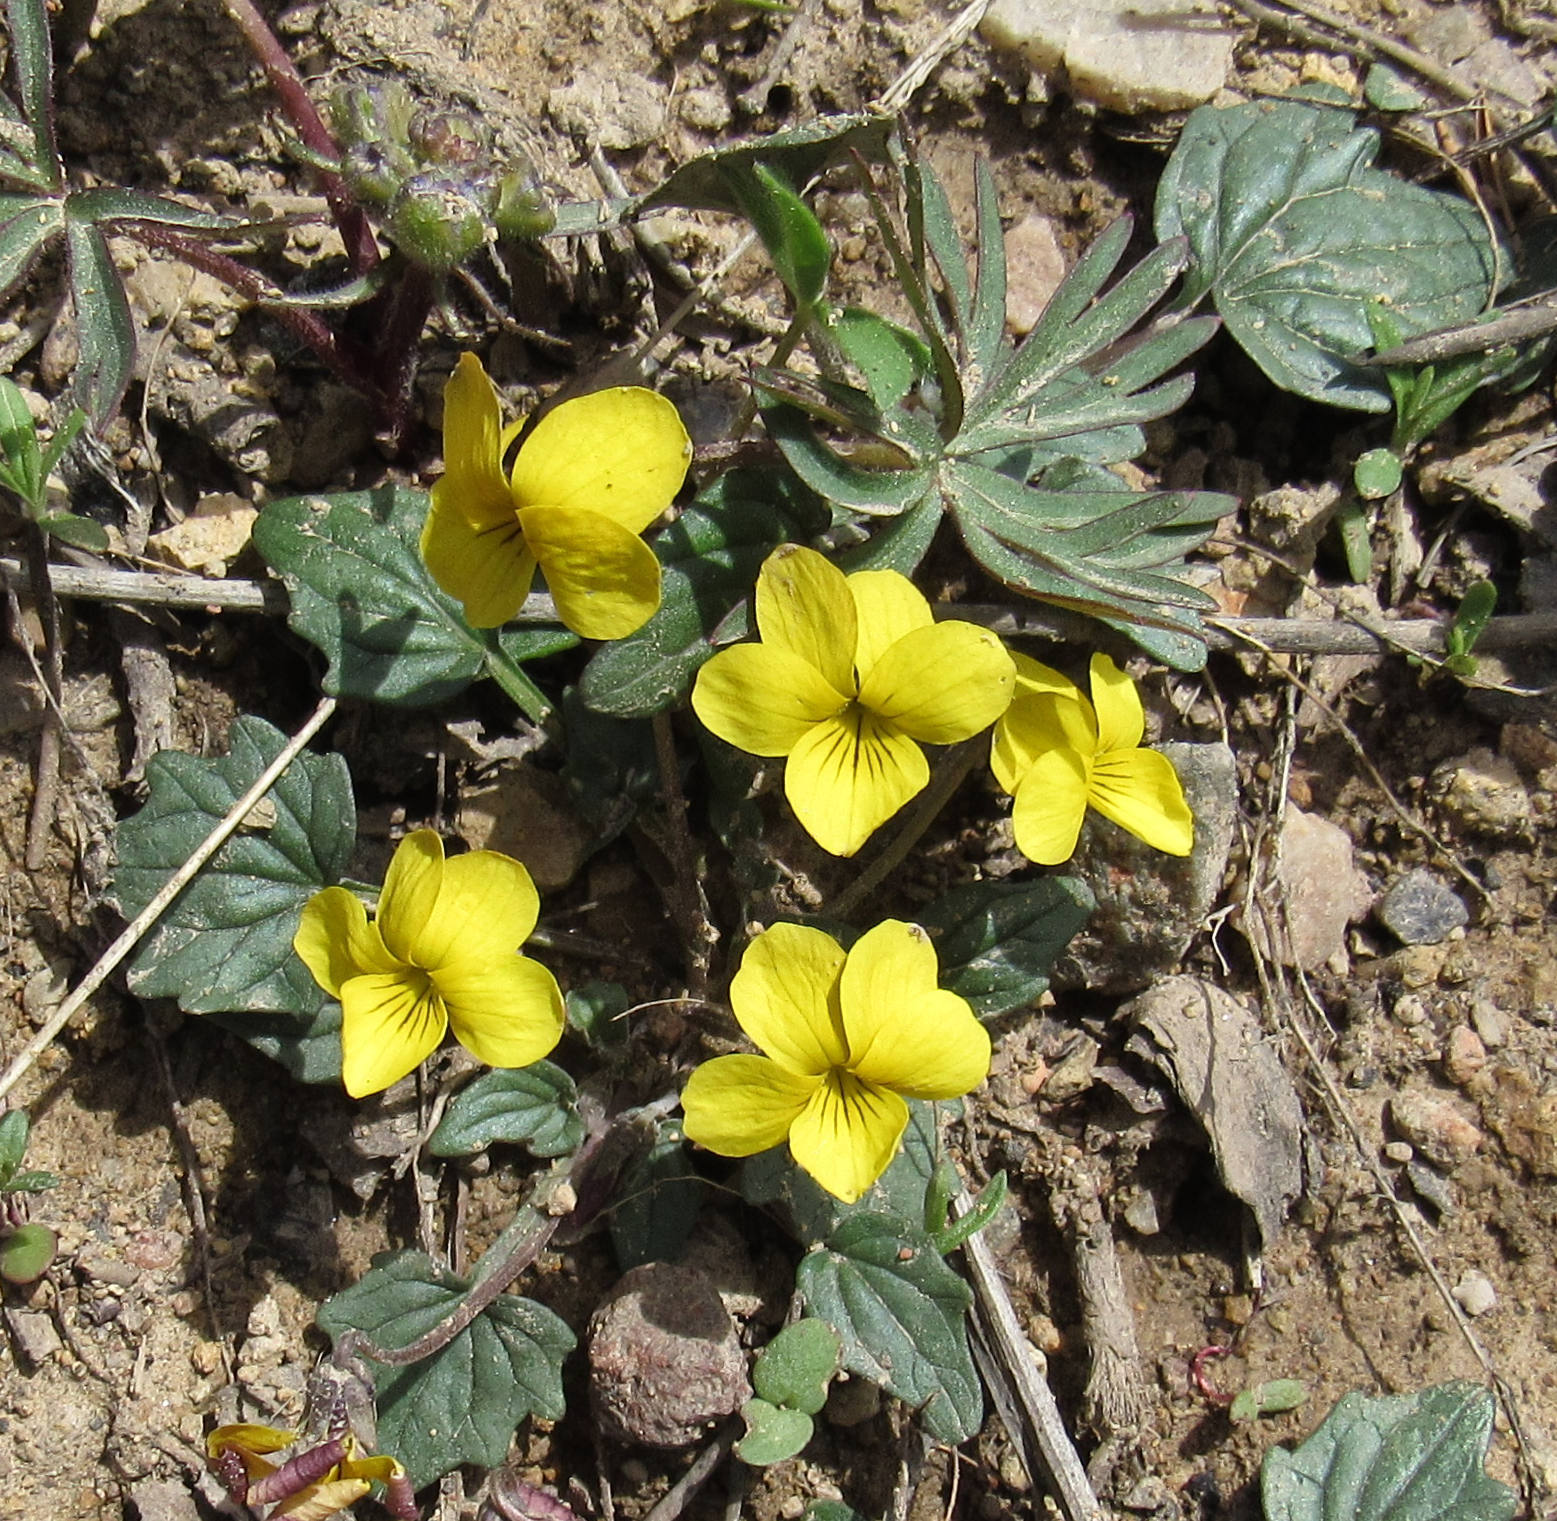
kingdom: Plantae
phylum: Tracheophyta
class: Magnoliopsida
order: Malpighiales
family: Violaceae
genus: Viola
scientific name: Viola purpurea
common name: Pine violet
